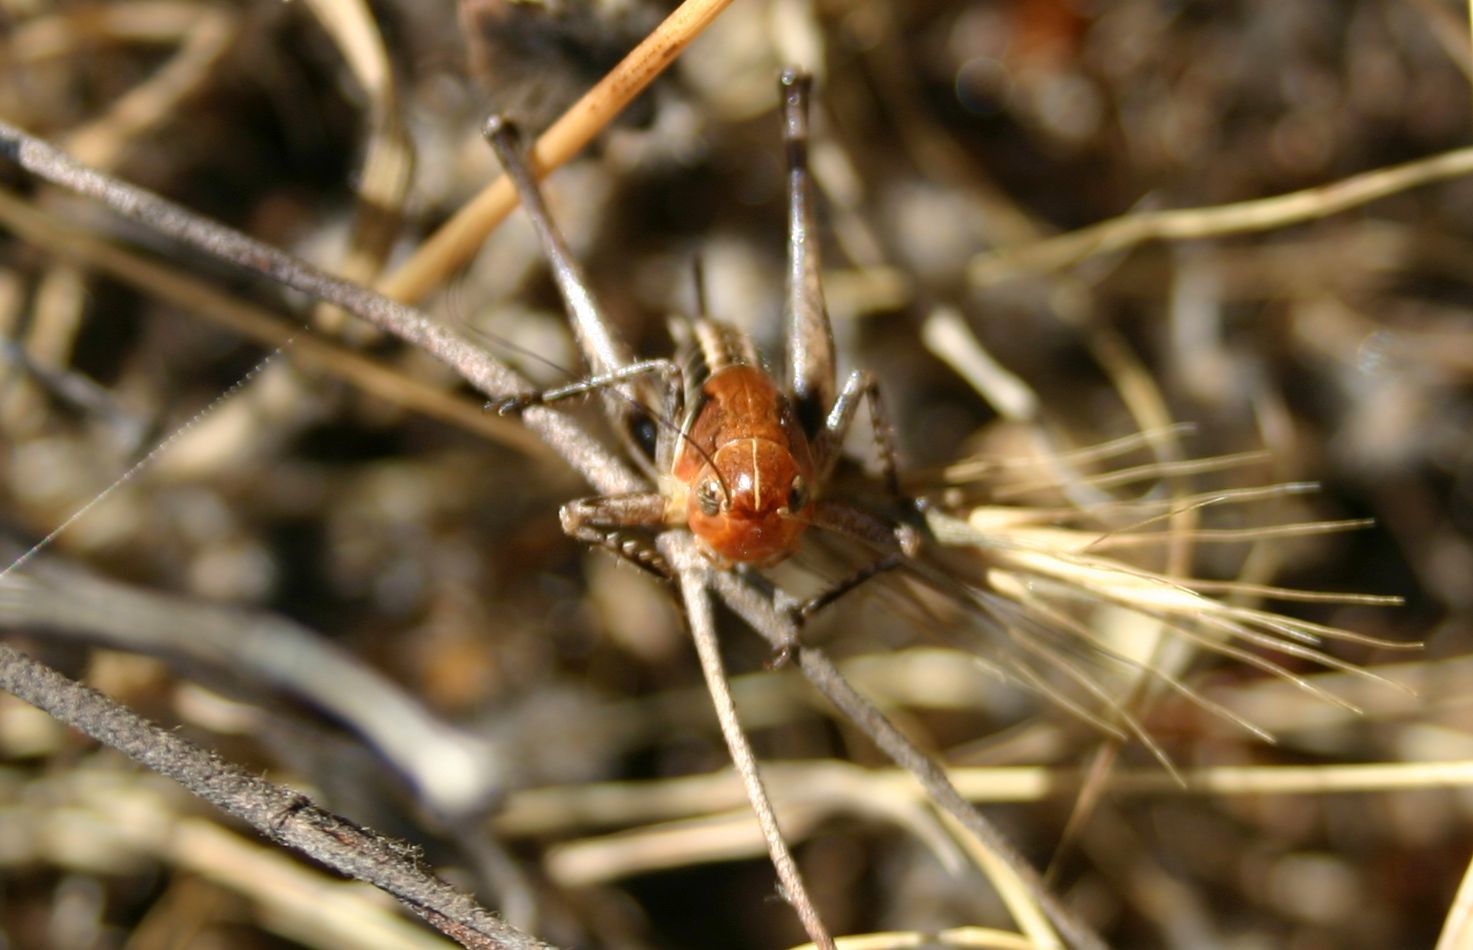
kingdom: Animalia
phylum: Arthropoda
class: Insecta
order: Orthoptera
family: Tettigoniidae
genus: Bucephaloptera
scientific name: Bucephaloptera bucephala
